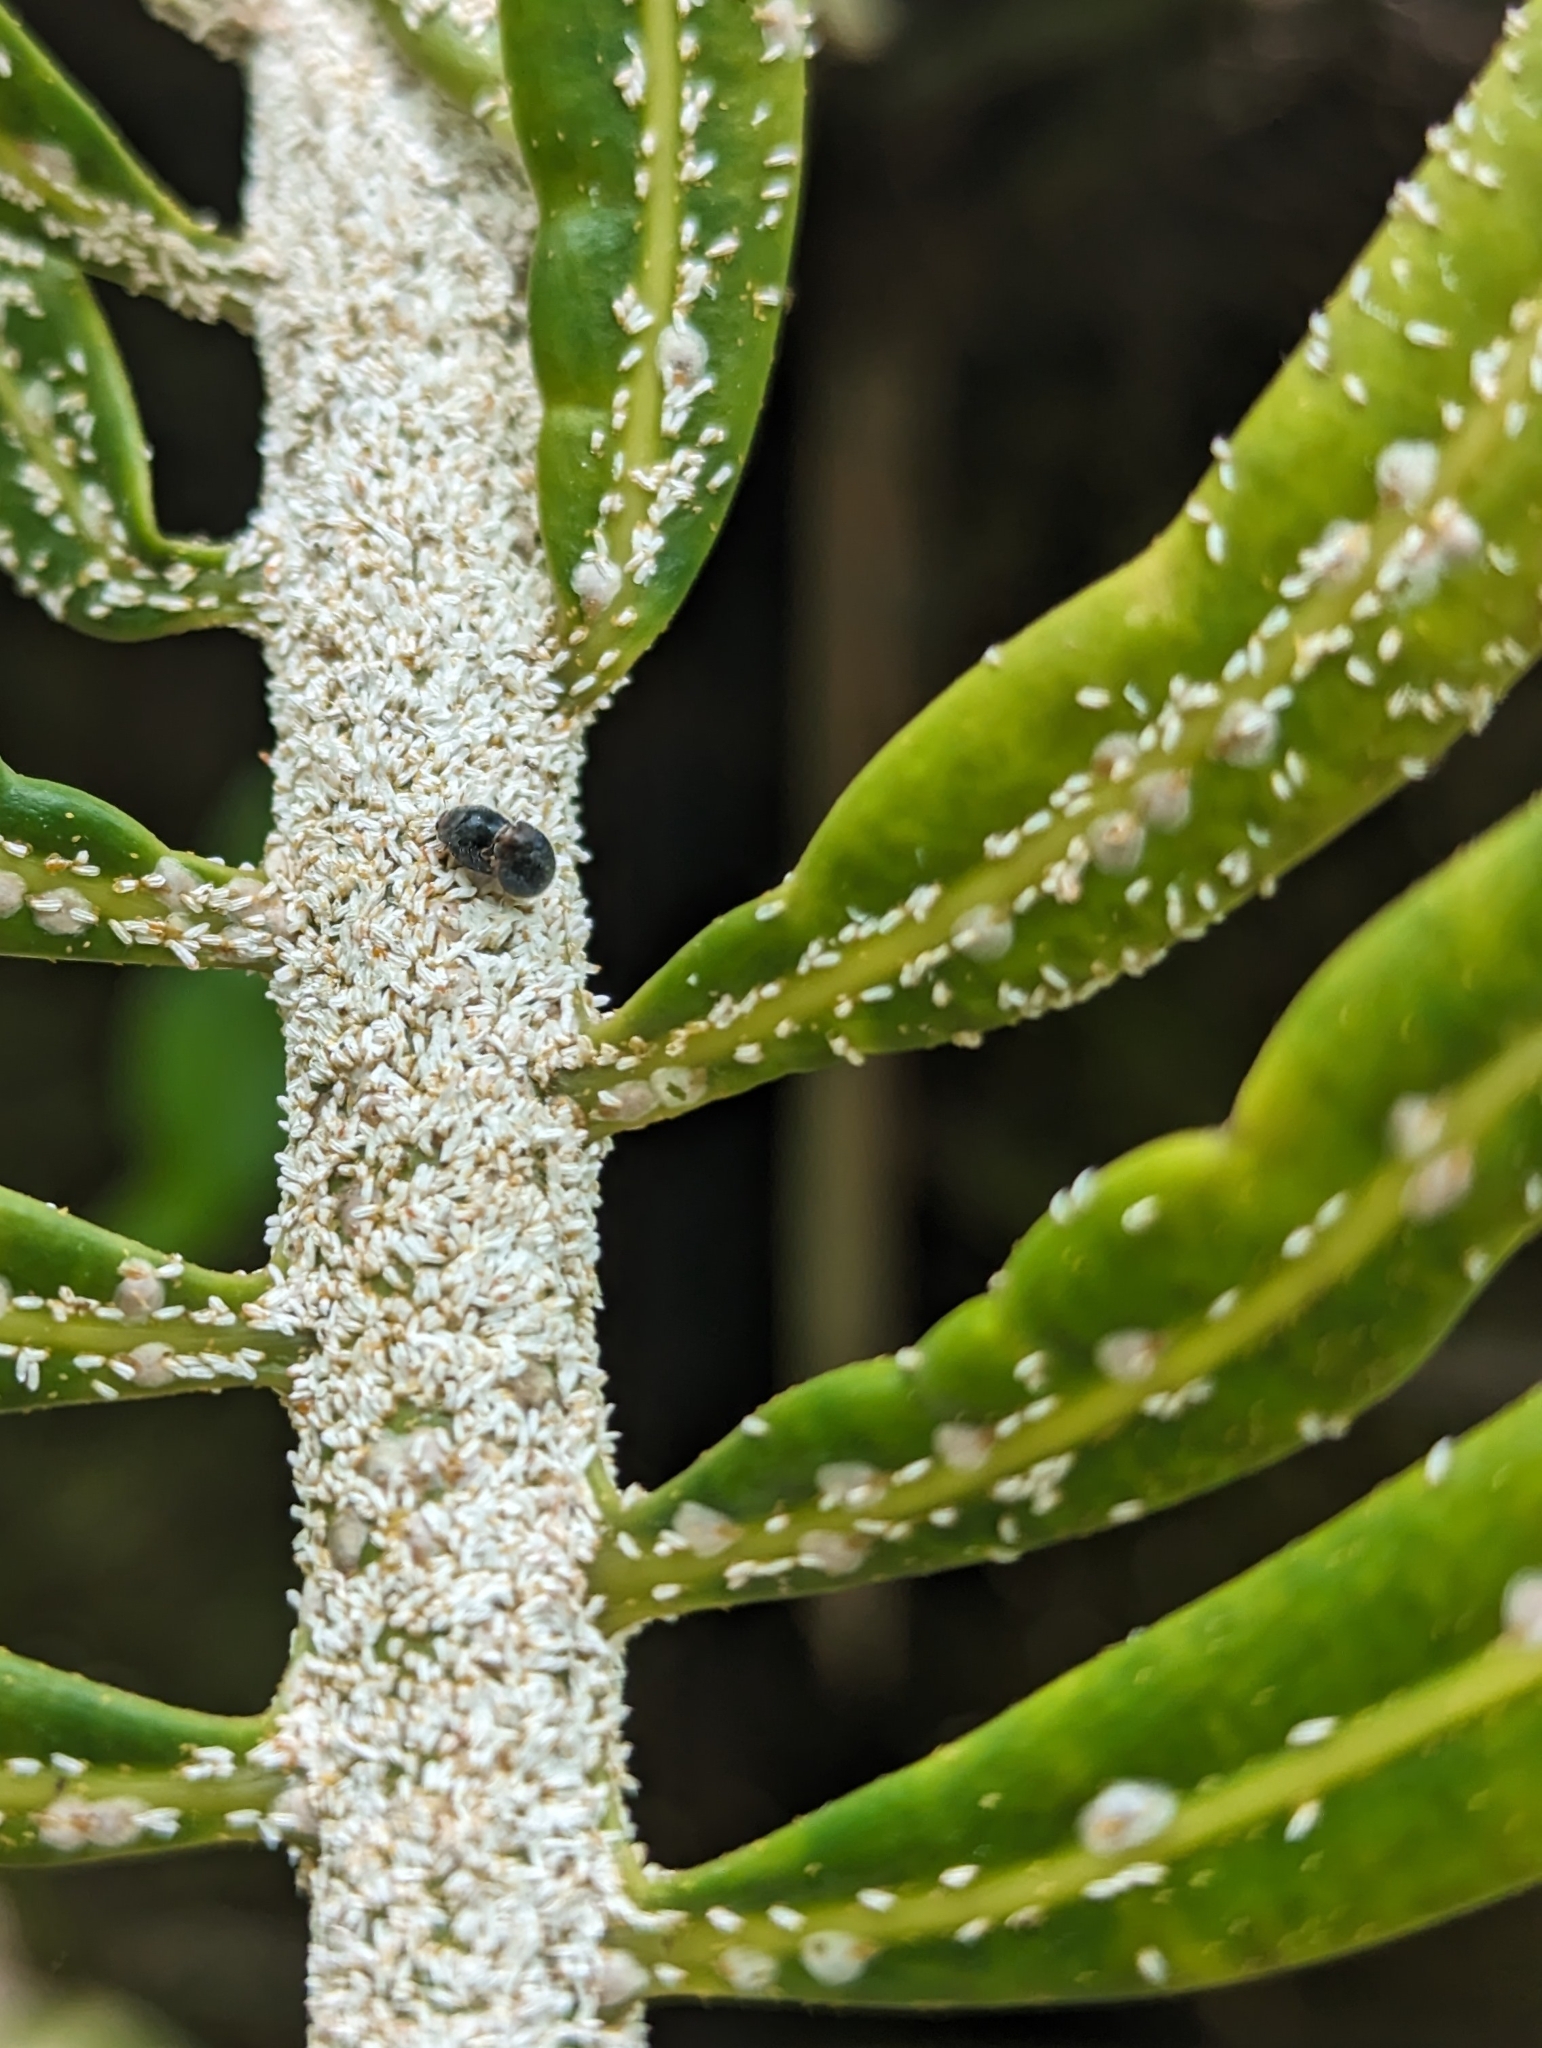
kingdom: Animalia
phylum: Arthropoda
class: Insecta
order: Hemiptera
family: Diaspididae
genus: Aulacaspis
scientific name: Aulacaspis yasumatsui
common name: Cycad aulacaspis scale
